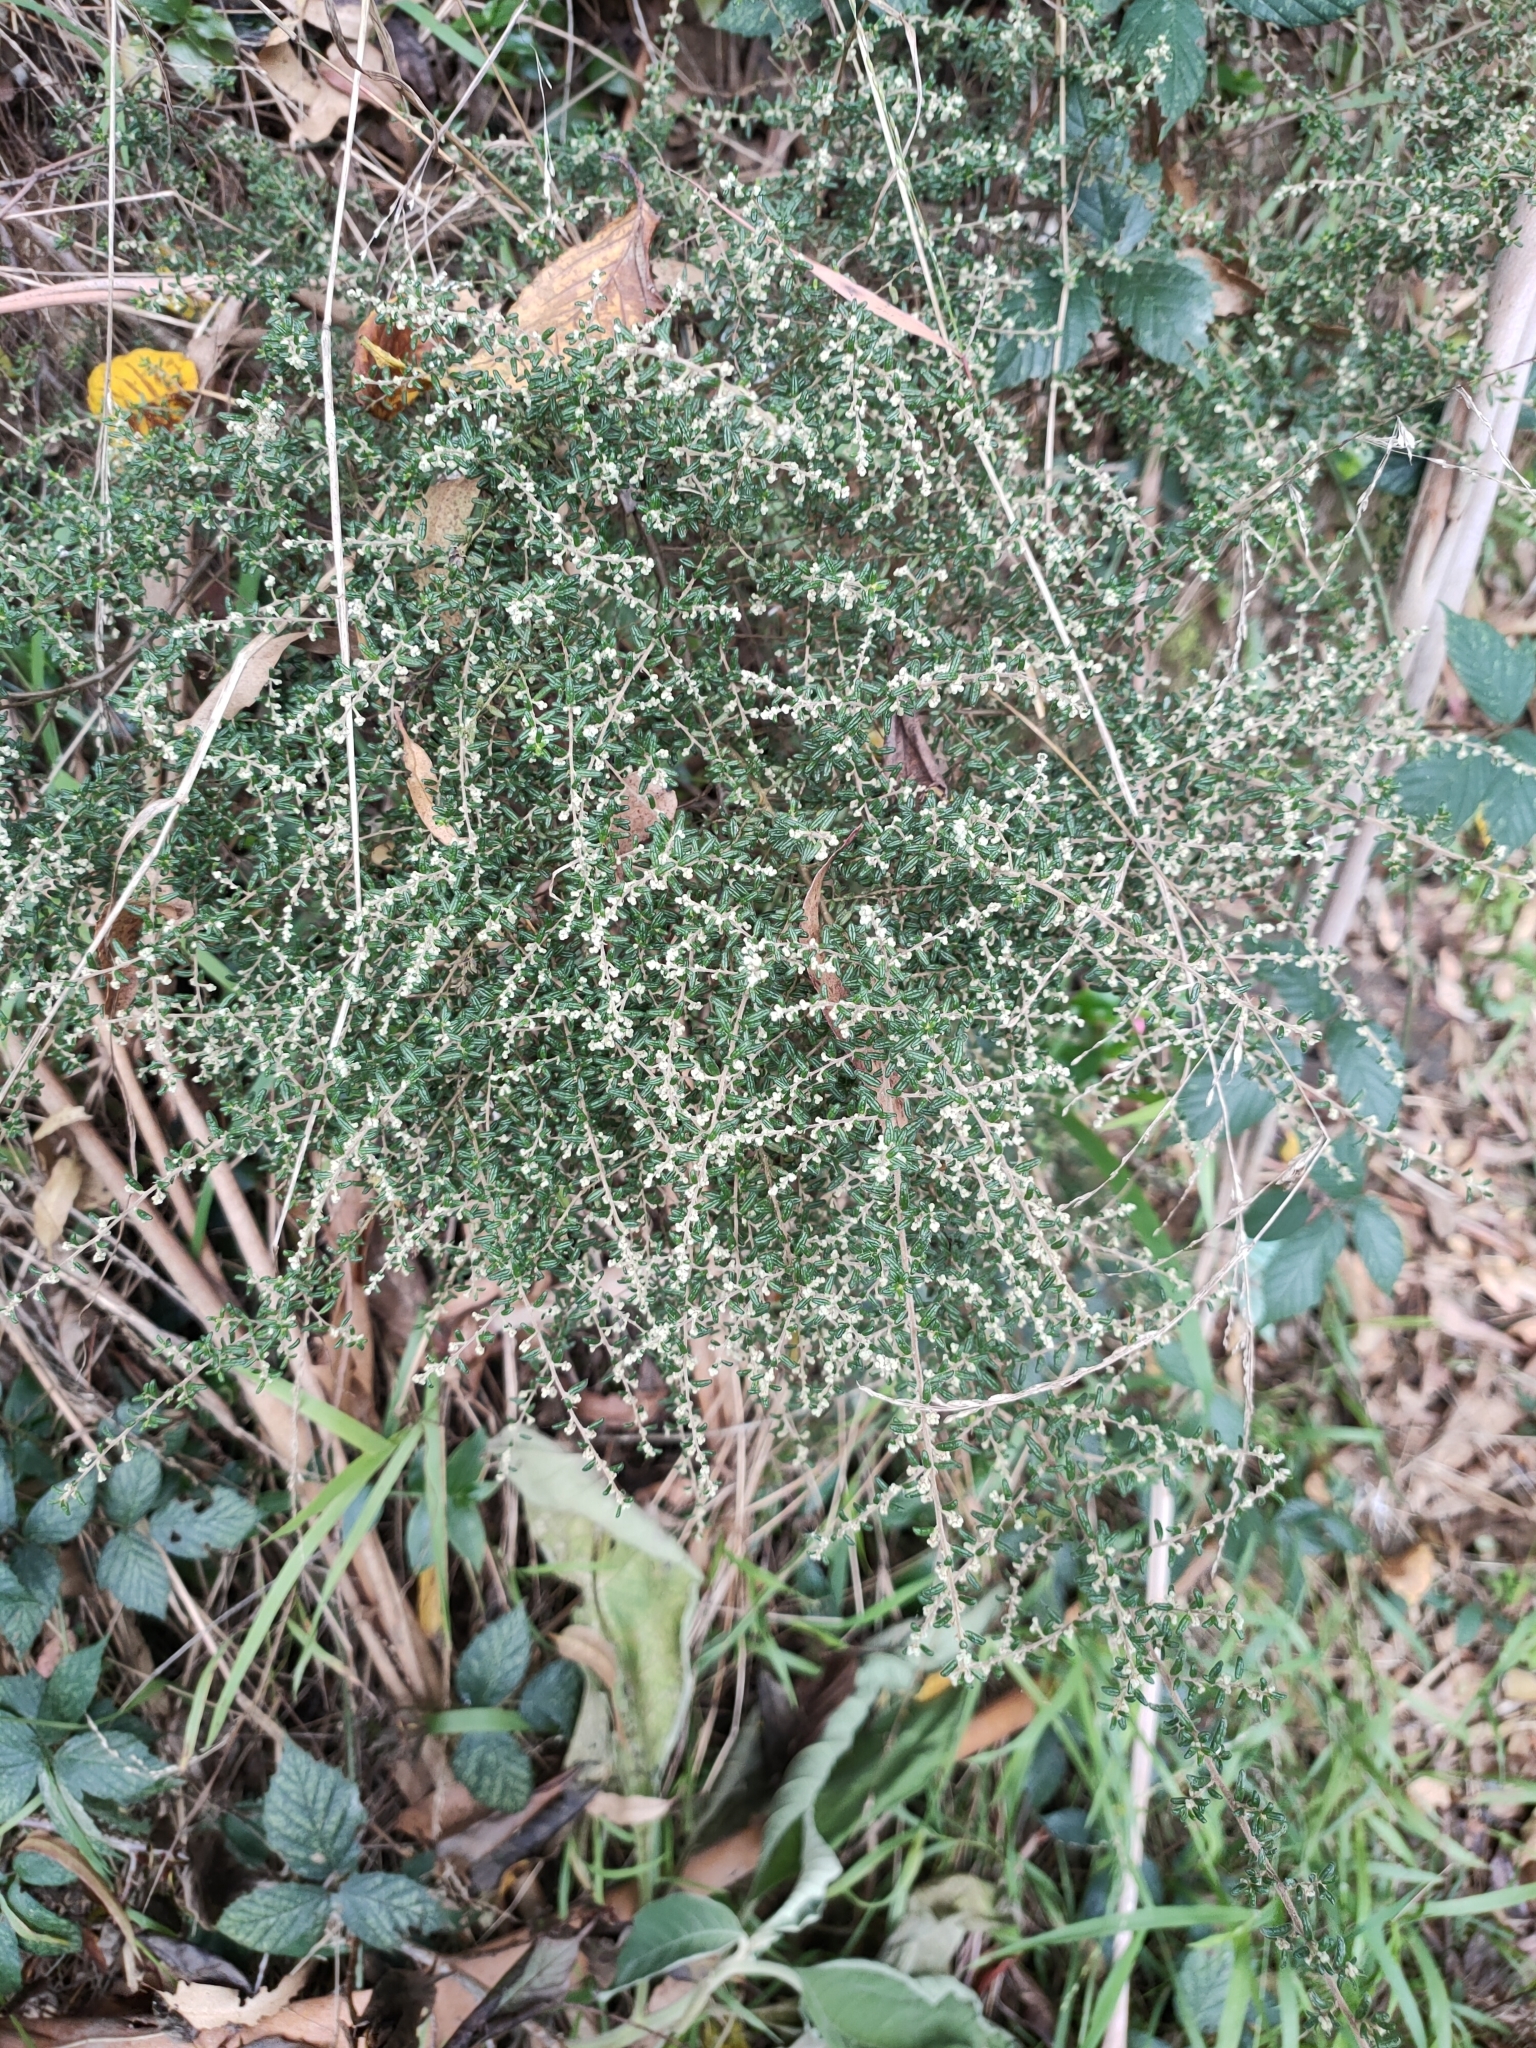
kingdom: Plantae
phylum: Tracheophyta
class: Magnoliopsida
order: Rosales
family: Rhamnaceae
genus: Pomaderris
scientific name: Pomaderris amoena
